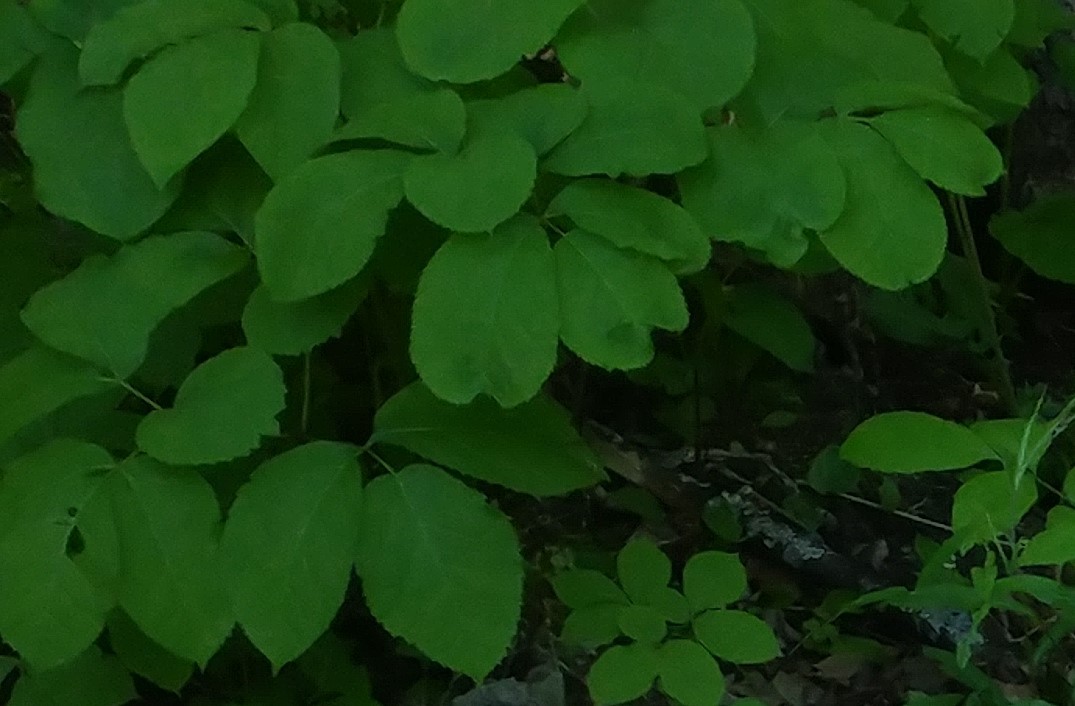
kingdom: Plantae
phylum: Tracheophyta
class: Magnoliopsida
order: Apiales
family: Araliaceae
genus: Aralia
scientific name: Aralia nudicaulis
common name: Wild sarsaparilla
